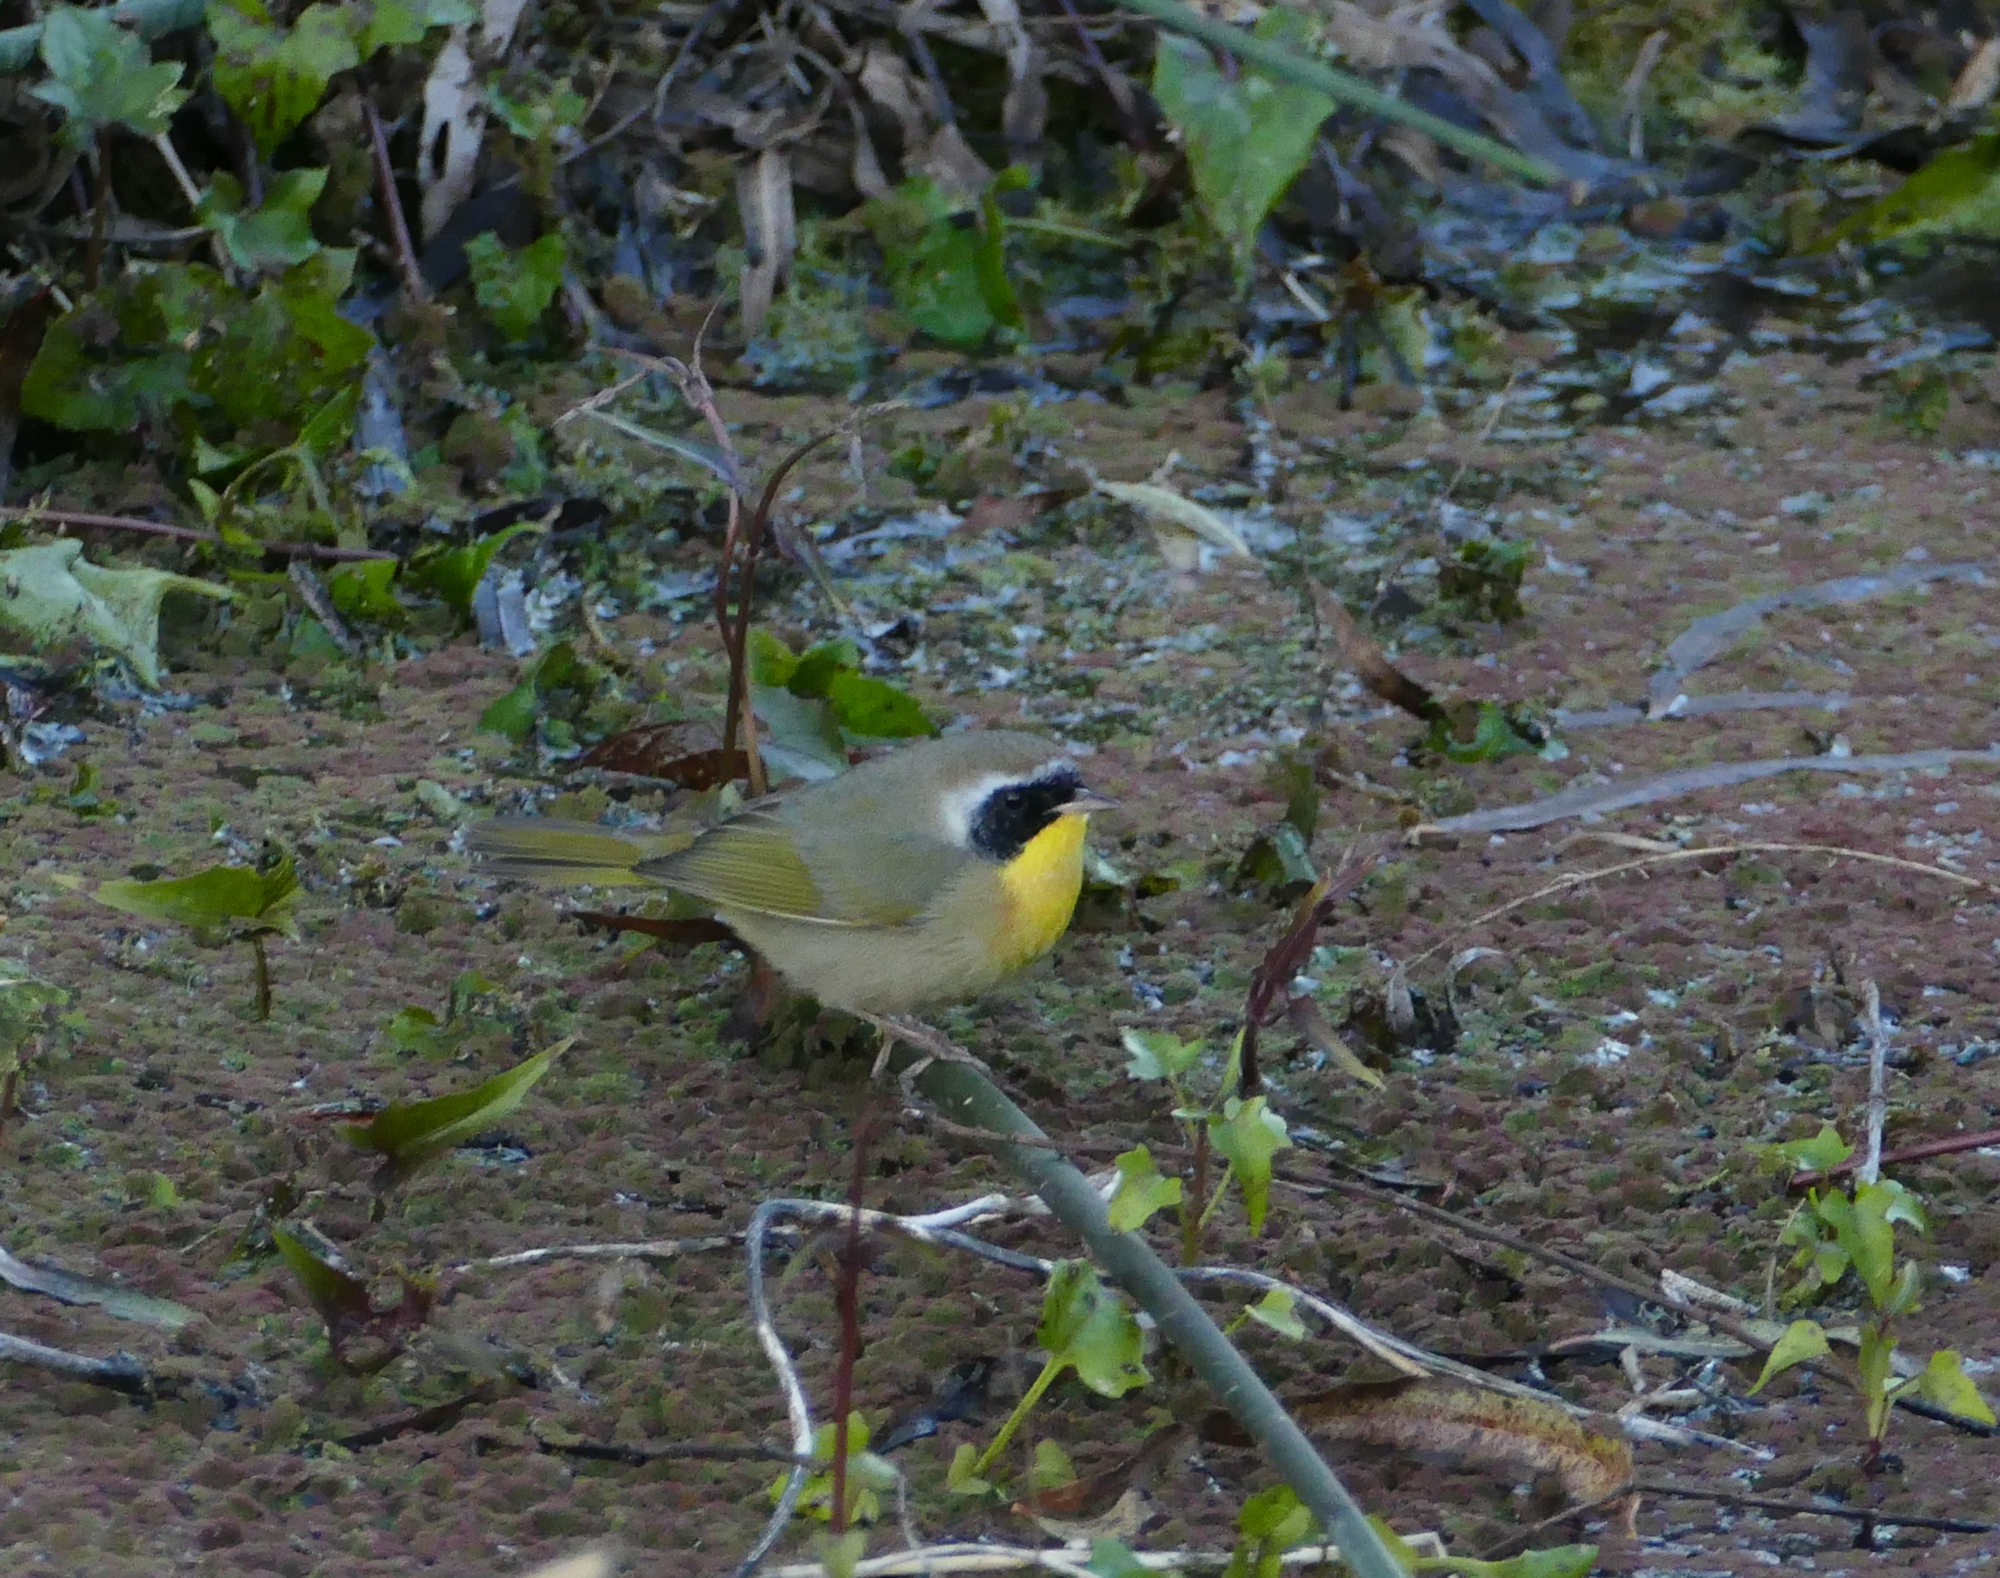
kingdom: Animalia
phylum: Chordata
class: Aves
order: Passeriformes
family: Parulidae
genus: Geothlypis
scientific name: Geothlypis trichas
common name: Common yellowthroat
